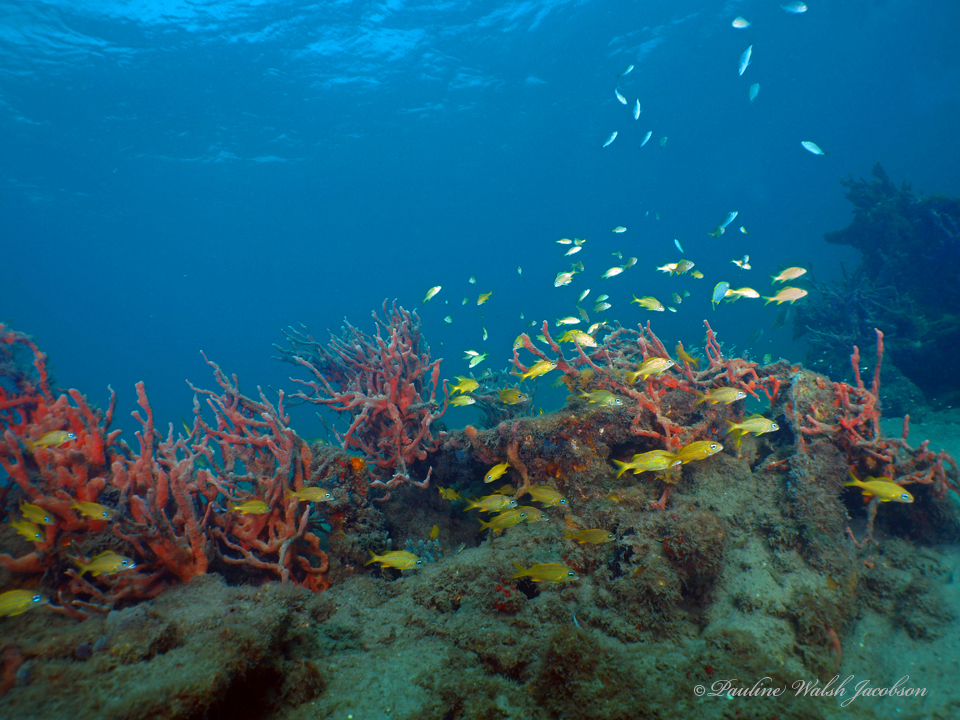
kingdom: Animalia
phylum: Chordata
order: Perciformes
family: Haemulidae
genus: Haemulon
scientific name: Haemulon flavolineatum
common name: French grunt
